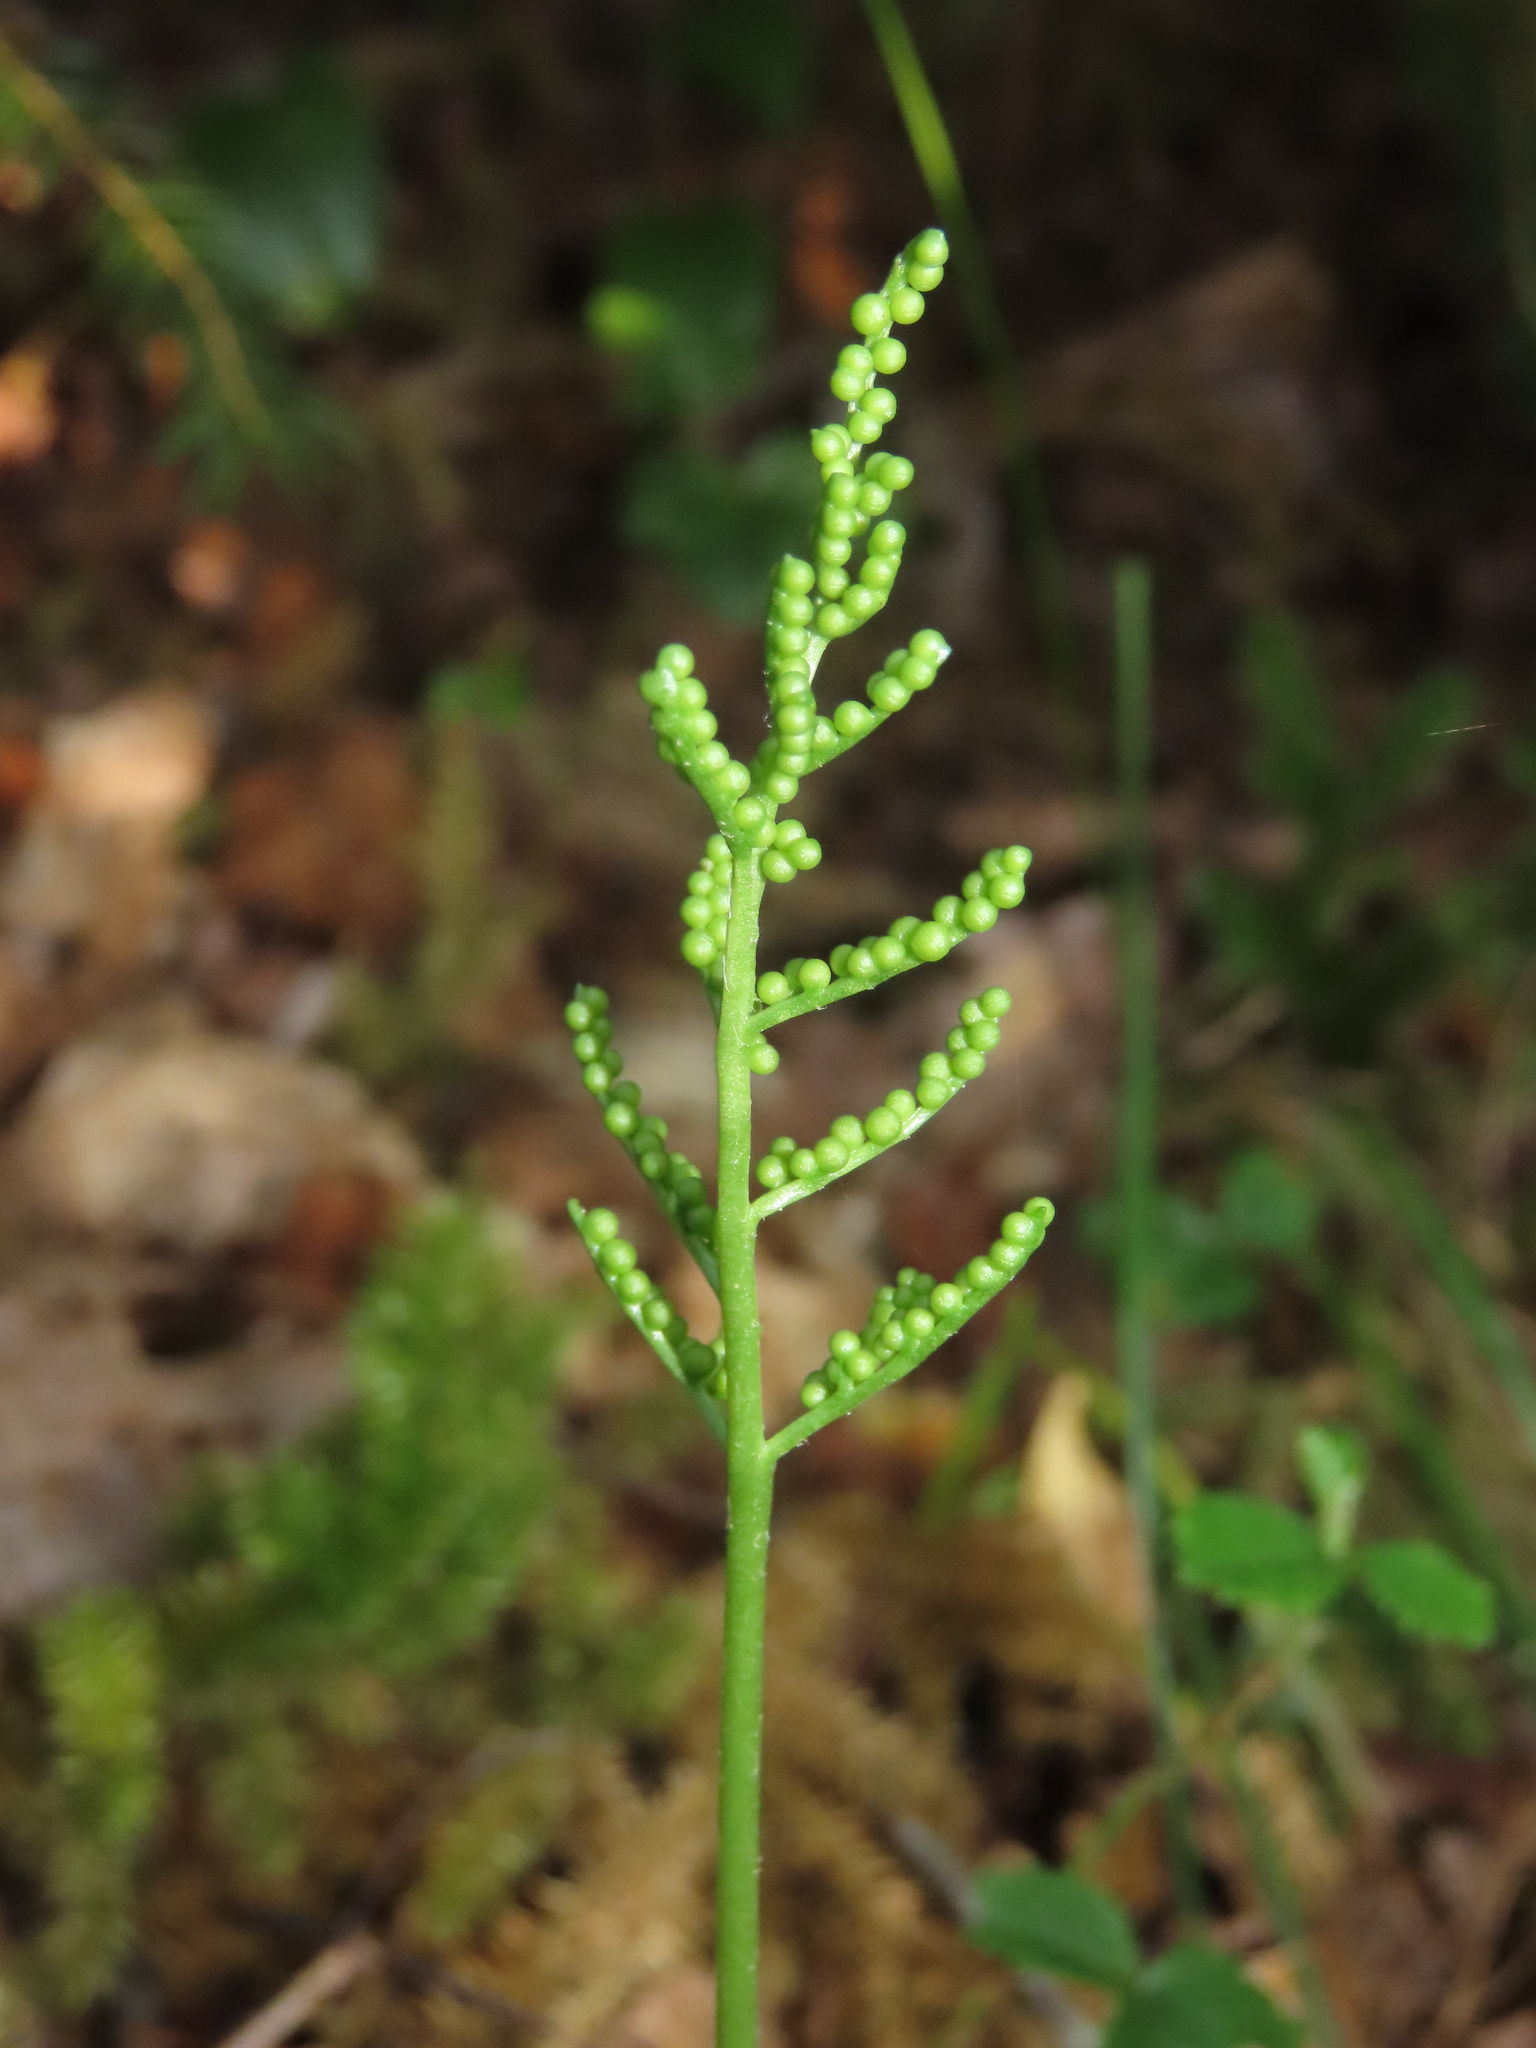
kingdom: Plantae
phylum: Tracheophyta
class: Polypodiopsida
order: Ophioglossales
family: Ophioglossaceae
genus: Sceptridium
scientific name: Sceptridium dissectum
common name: Cut-leaved grapefern
